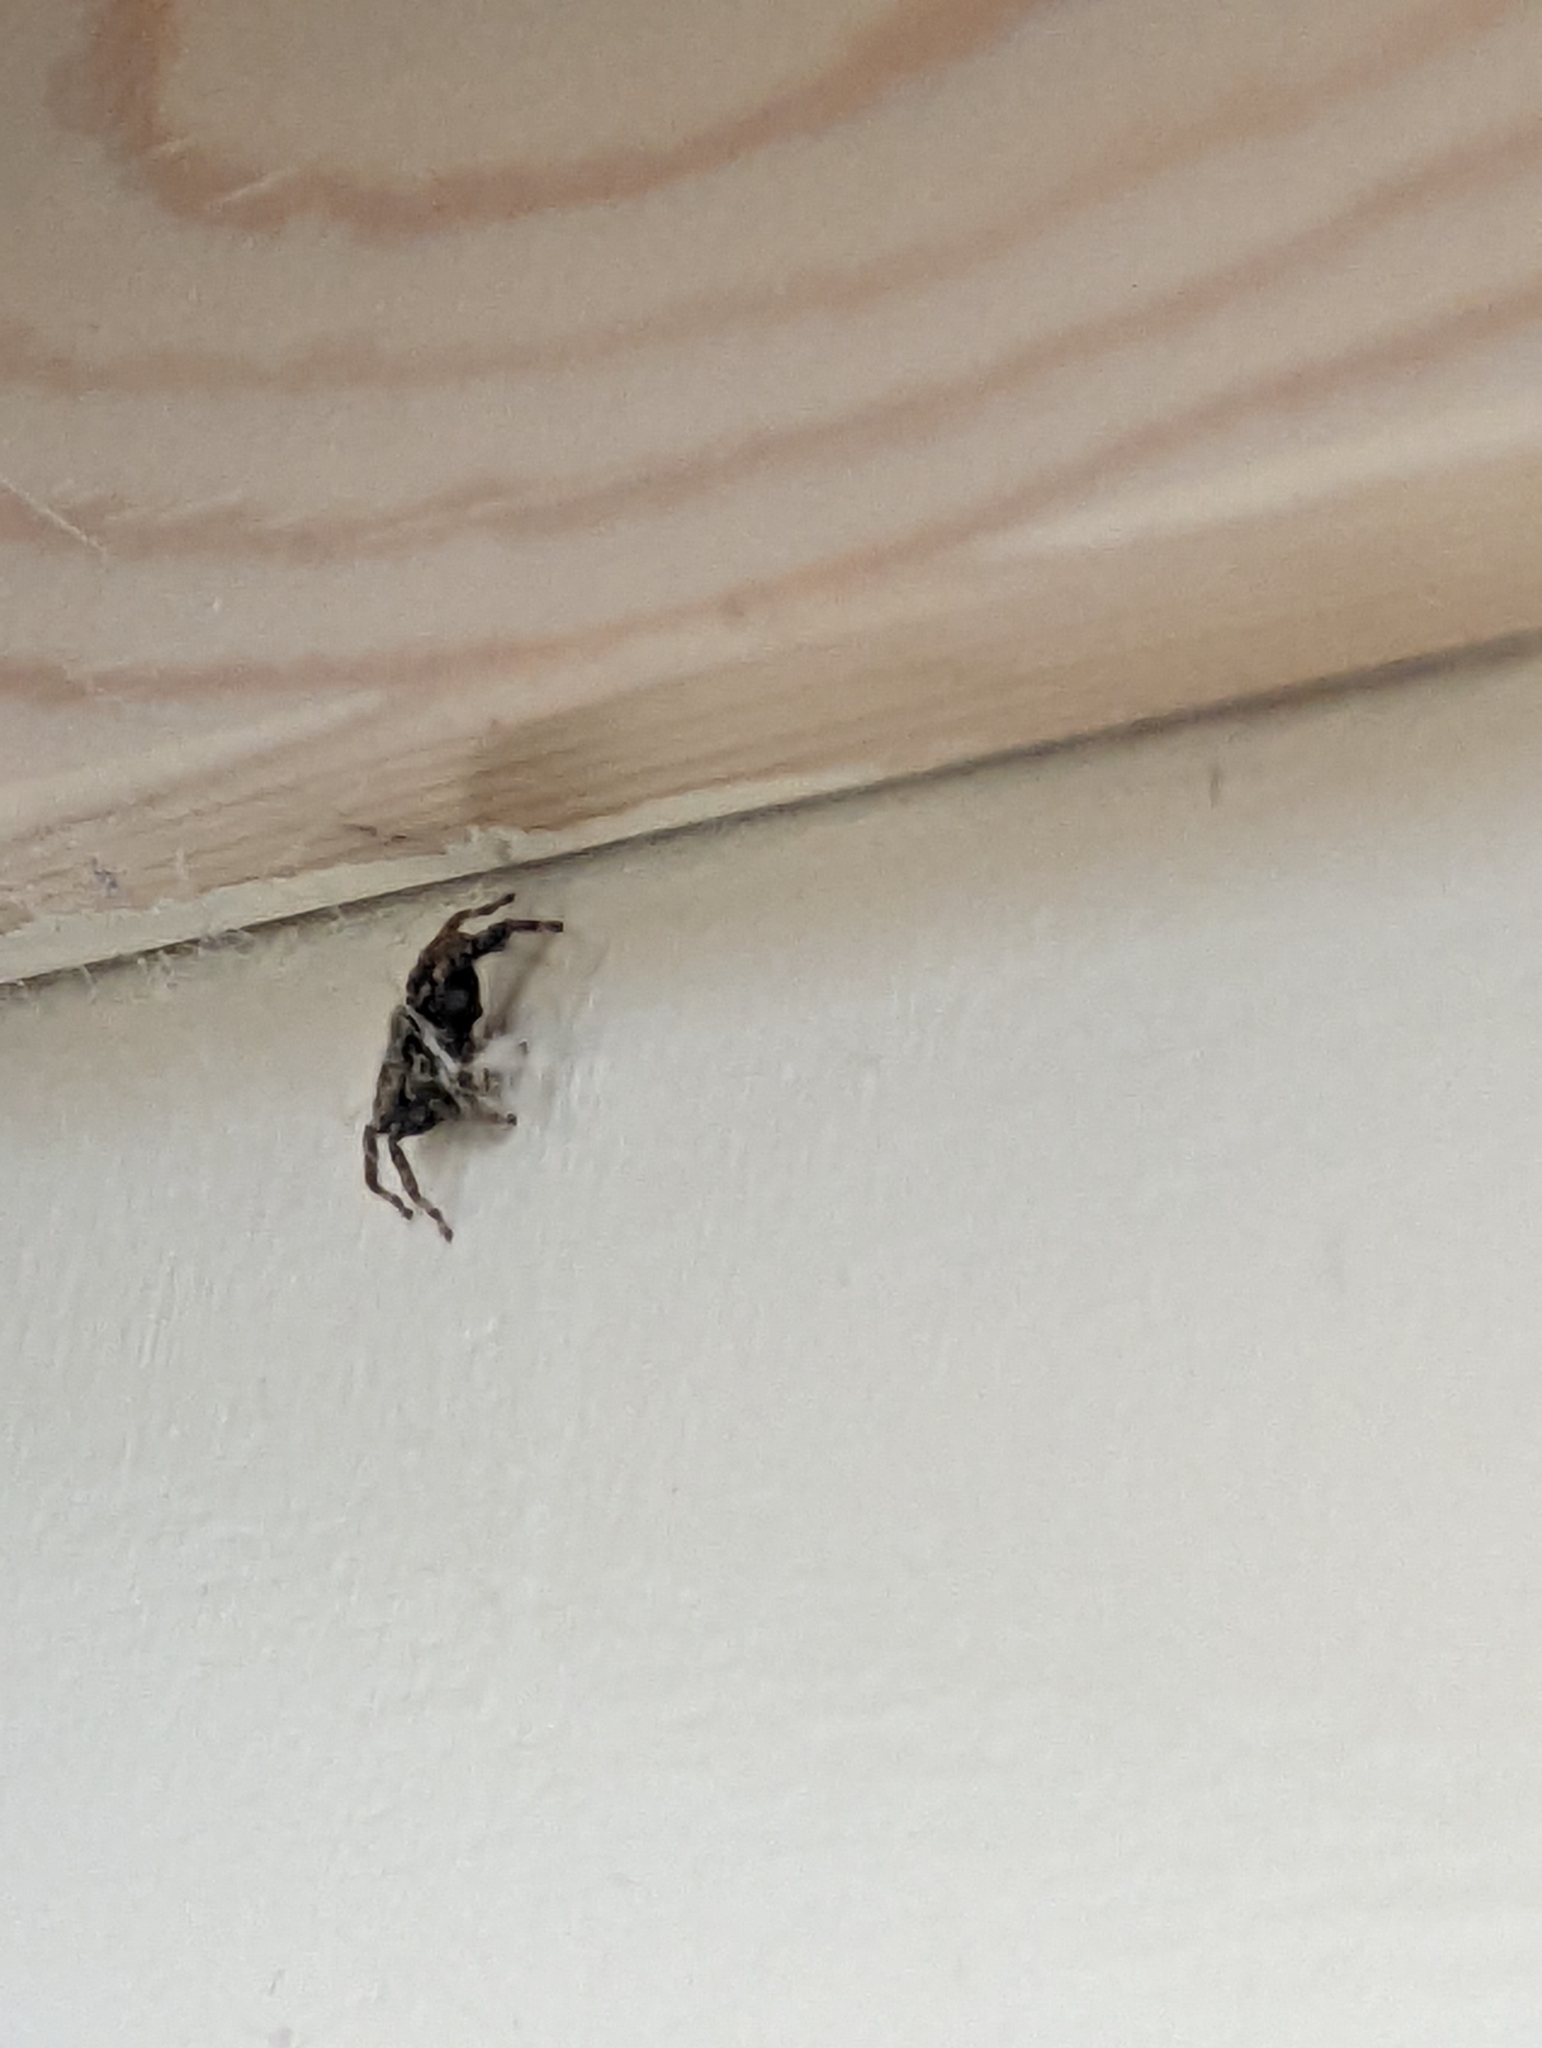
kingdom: Animalia
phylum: Arthropoda
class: Arachnida
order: Araneae
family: Salticidae
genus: Marpissa
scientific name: Marpissa muscosa
